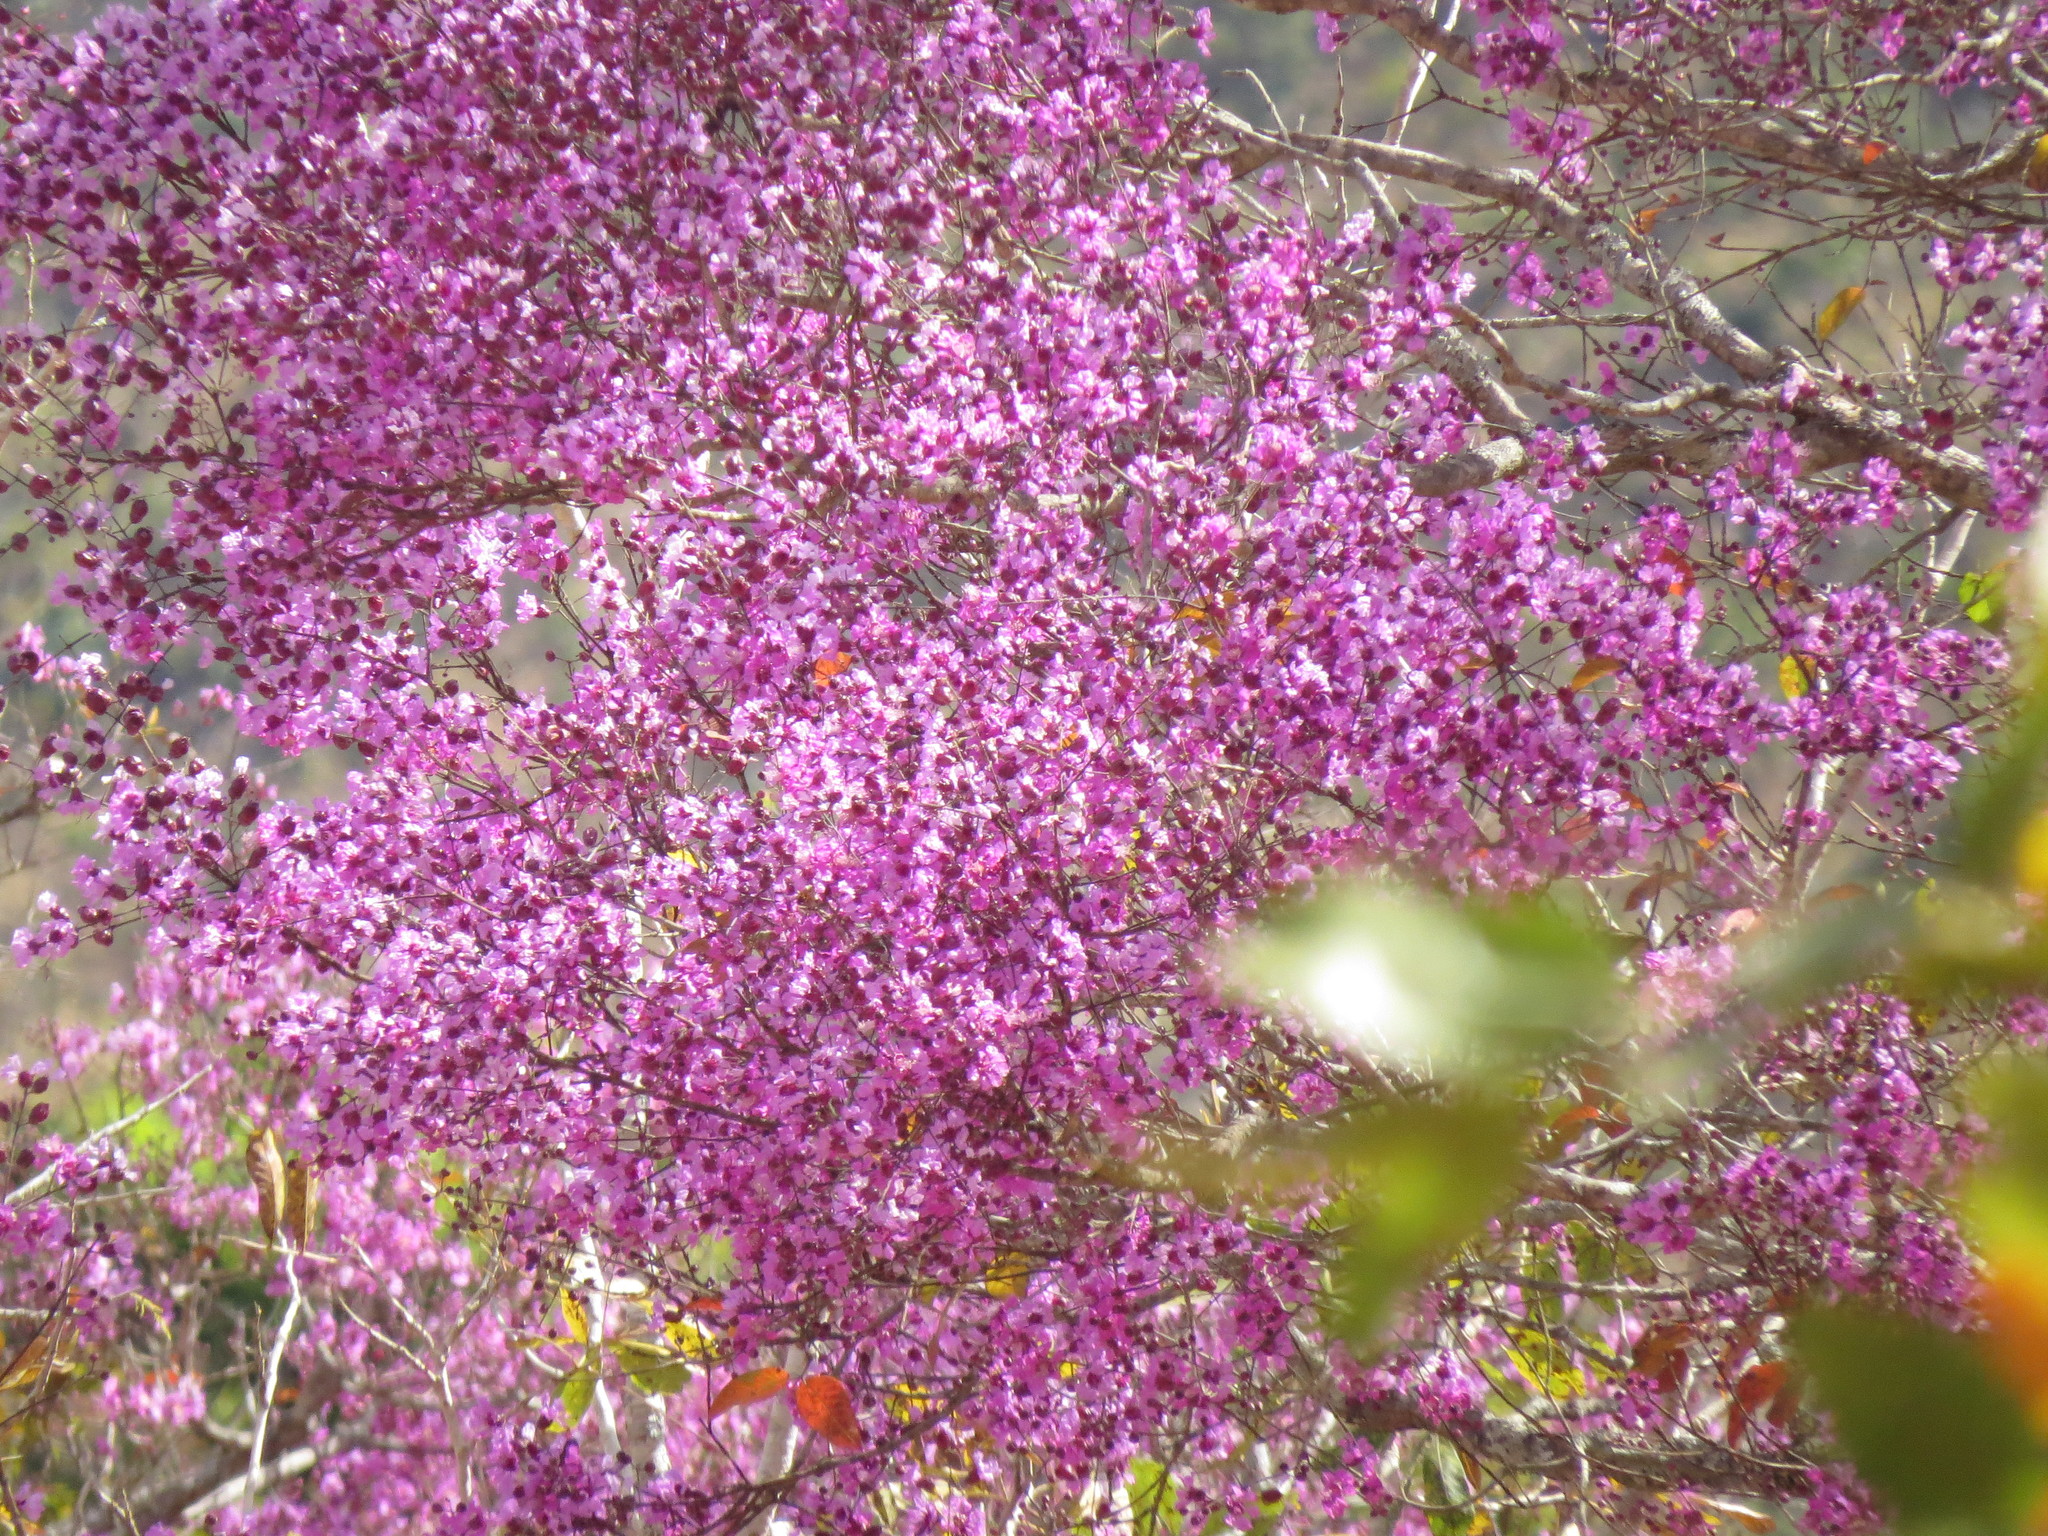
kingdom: Plantae
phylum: Tracheophyta
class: Magnoliopsida
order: Myrtales
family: Lythraceae
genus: Physocalymma
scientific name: Physocalymma scaberrimum
